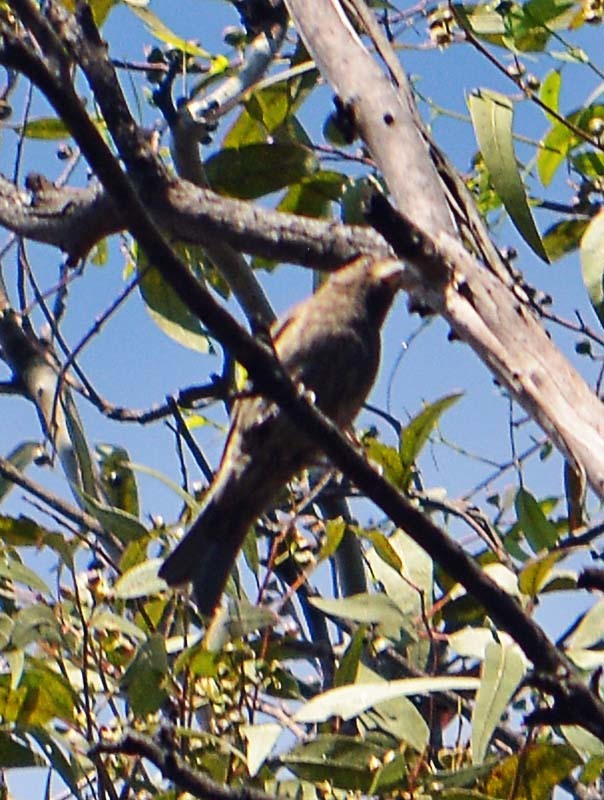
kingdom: Animalia
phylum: Chordata
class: Aves
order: Passeriformes
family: Fringillidae
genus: Haemorhous
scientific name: Haemorhous mexicanus
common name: House finch
